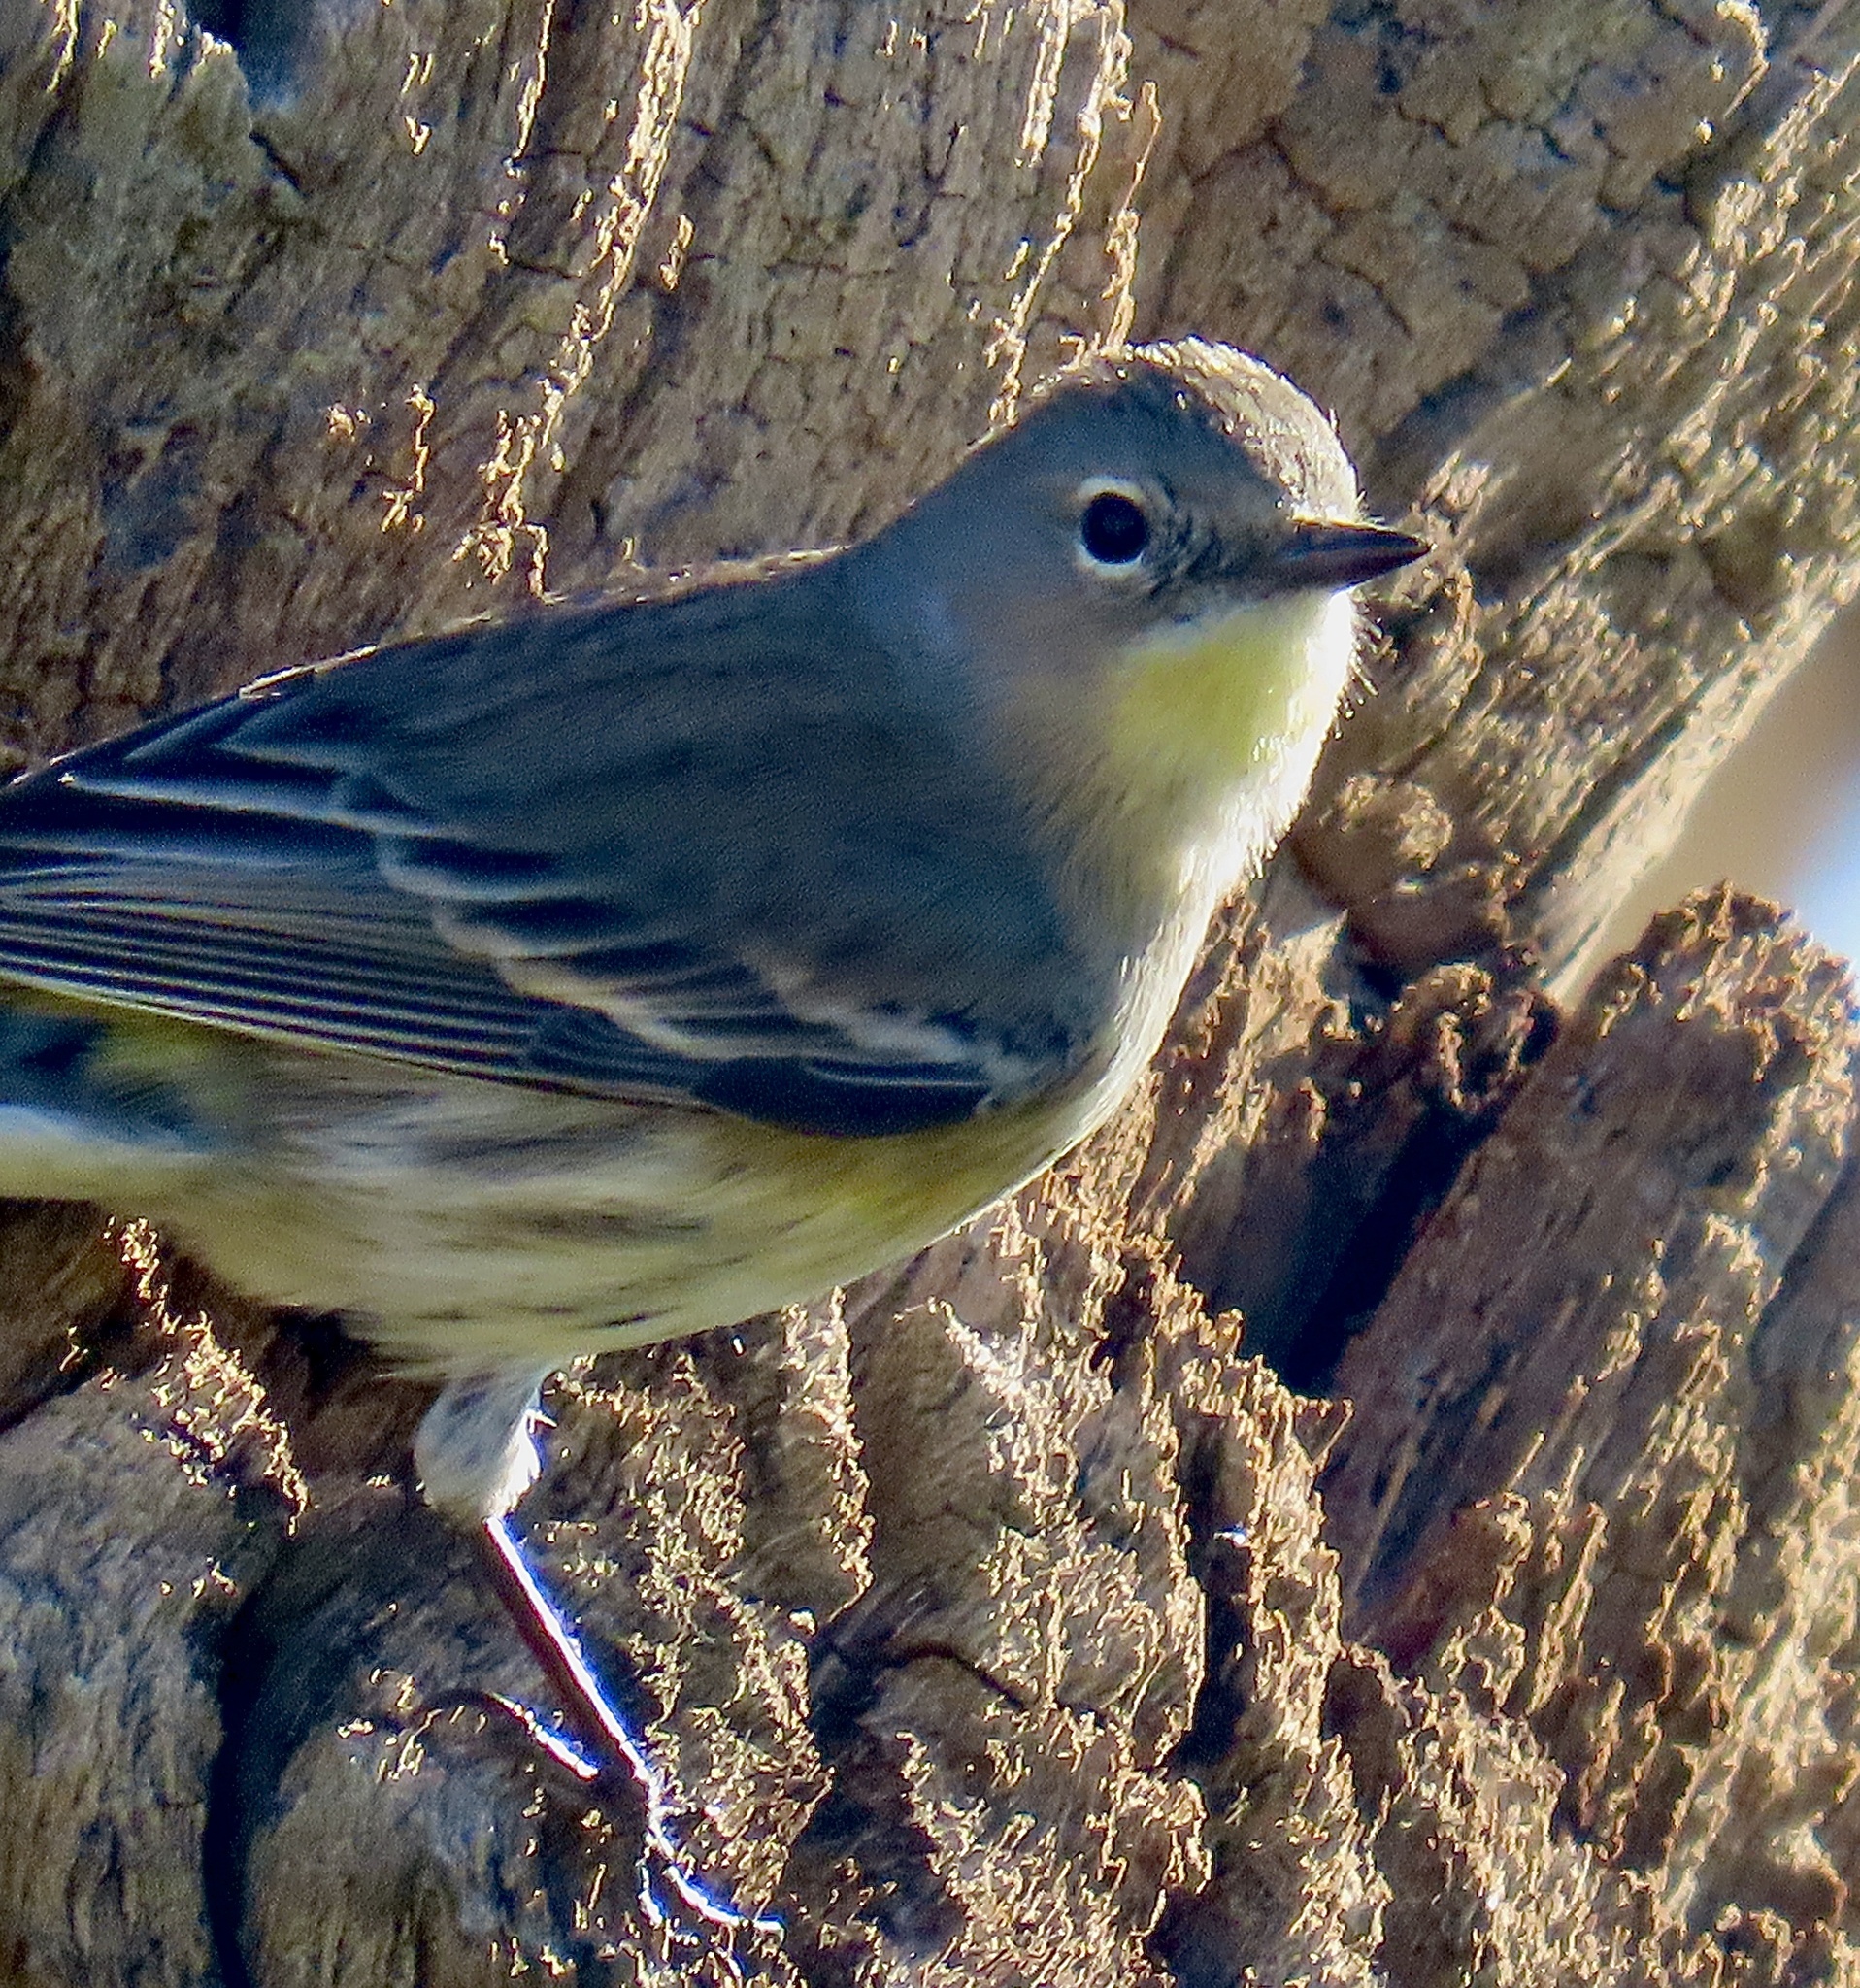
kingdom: Animalia
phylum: Chordata
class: Aves
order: Passeriformes
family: Parulidae
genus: Setophaga
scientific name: Setophaga auduboni
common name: Audubon's warbler
